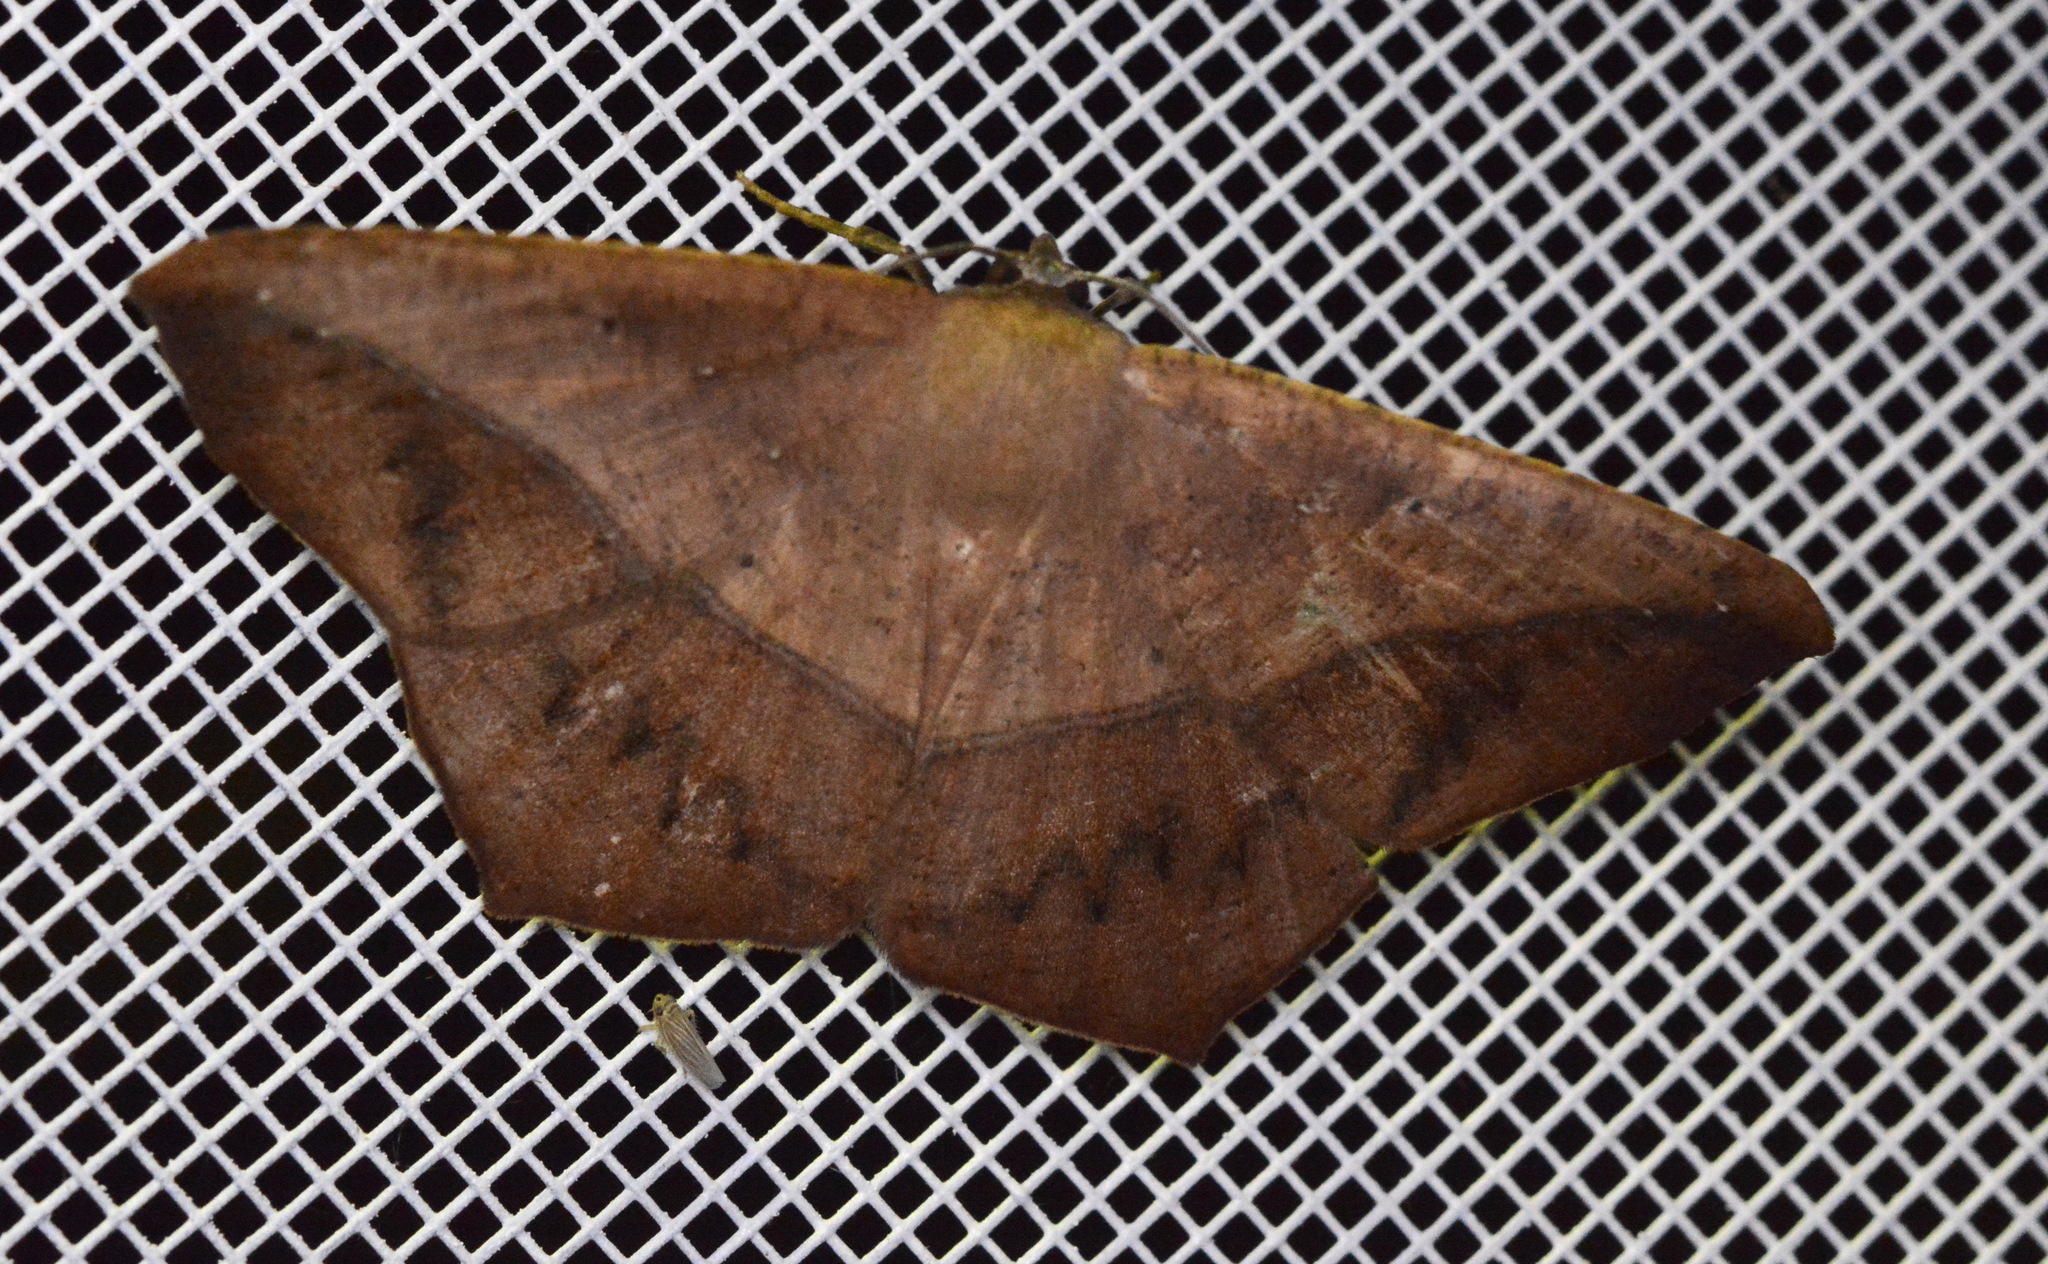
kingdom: Animalia
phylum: Arthropoda
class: Insecta
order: Lepidoptera
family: Geometridae
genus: Prochoerodes
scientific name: Prochoerodes lineola
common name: Large maple spanworm
